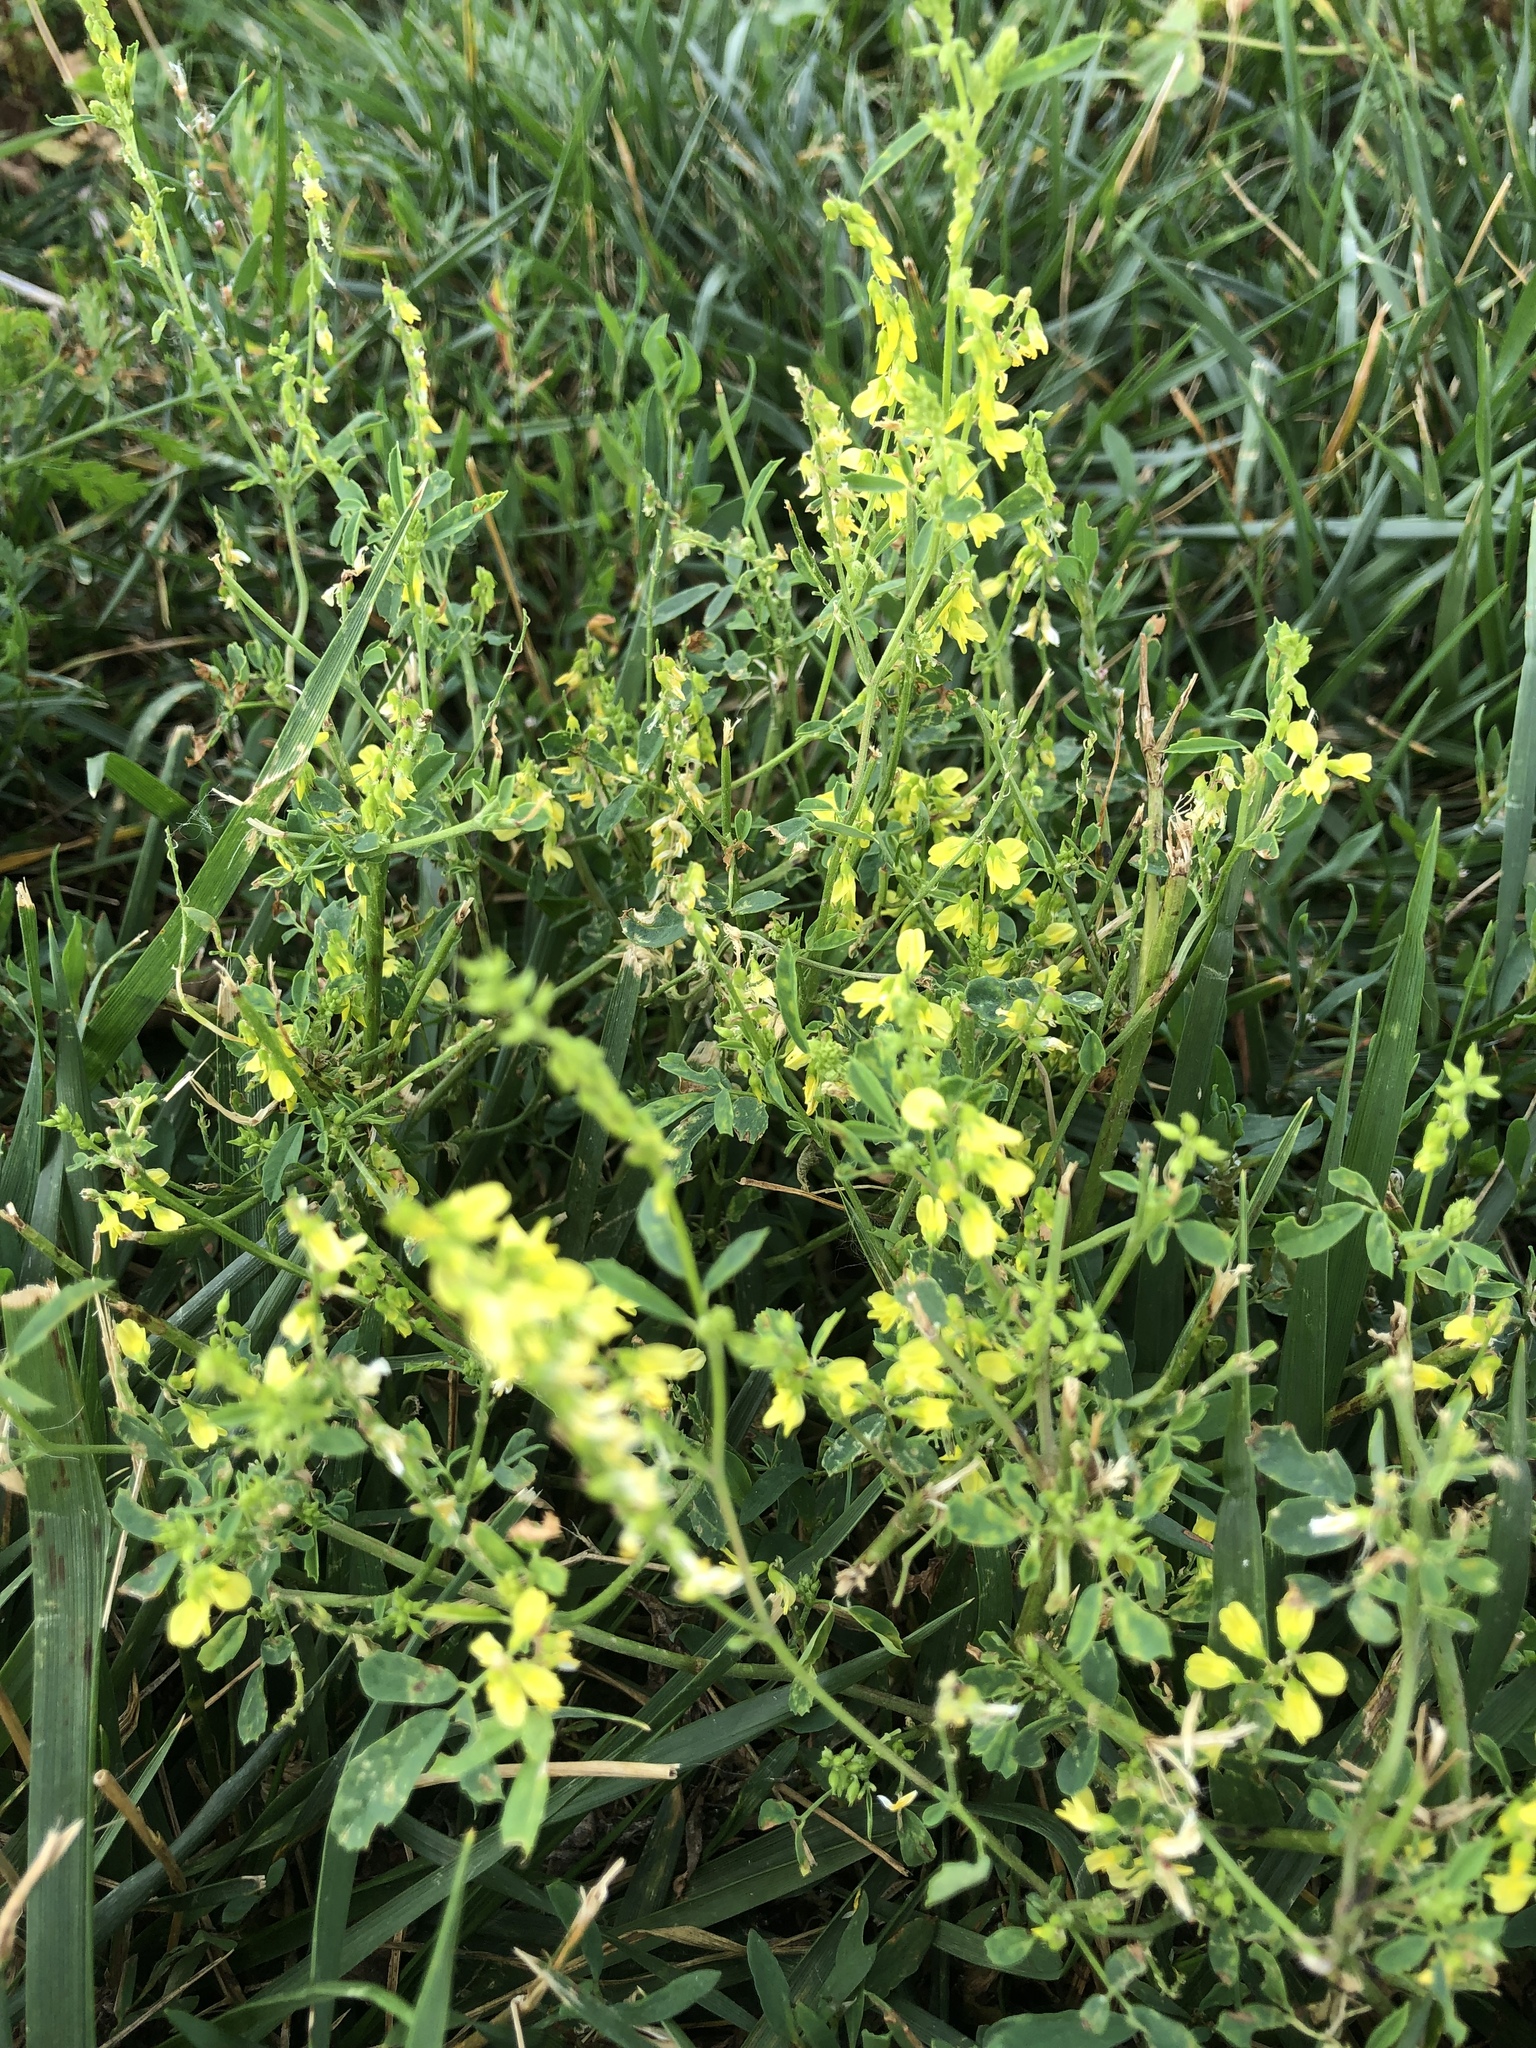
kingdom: Plantae
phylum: Tracheophyta
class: Magnoliopsida
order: Fabales
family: Fabaceae
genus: Melilotus
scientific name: Melilotus officinalis
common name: Sweetclover
